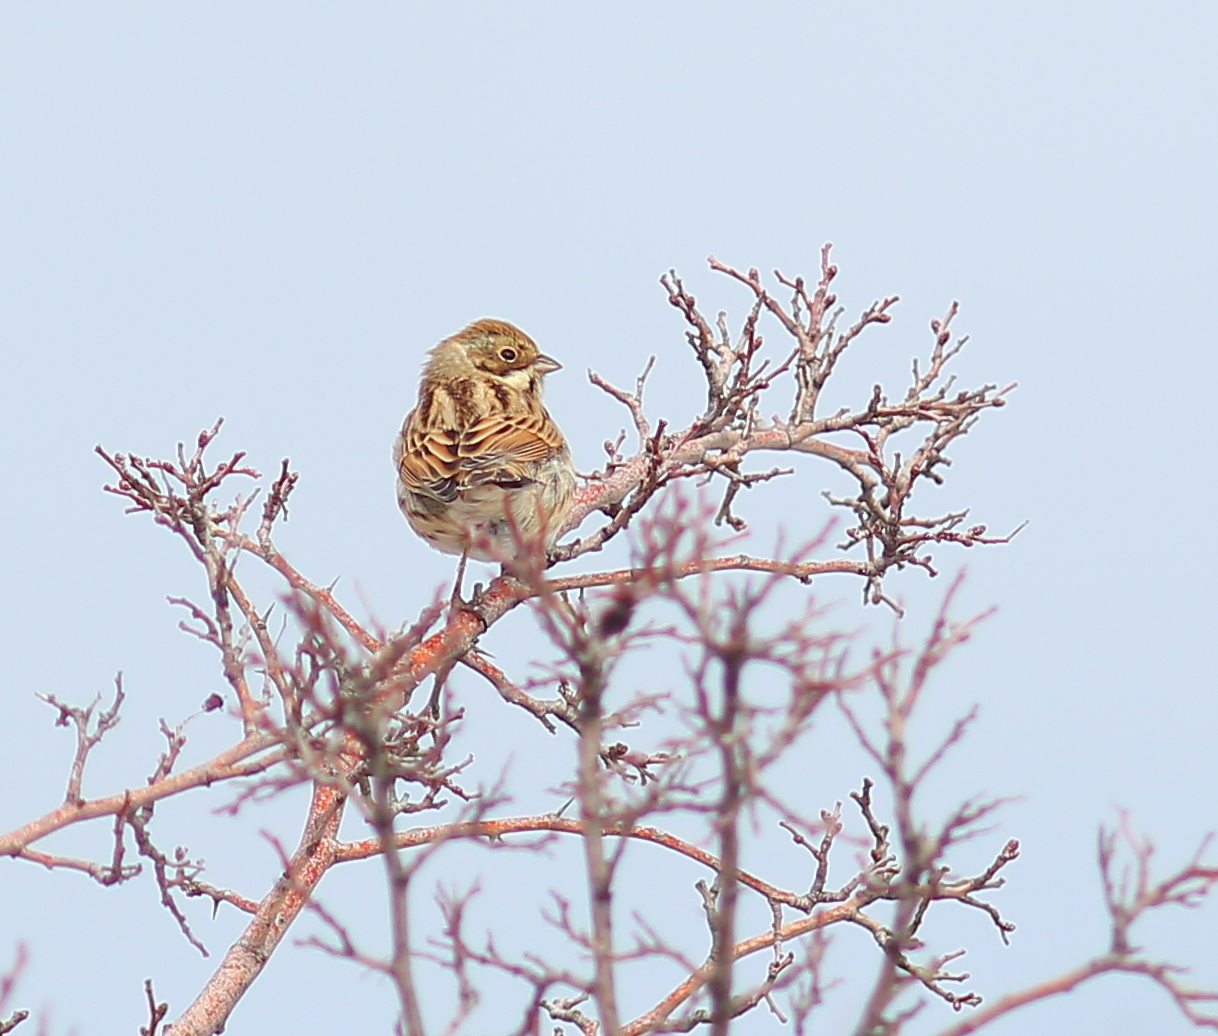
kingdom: Animalia
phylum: Chordata
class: Aves
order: Passeriformes
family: Emberizidae
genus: Emberiza
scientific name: Emberiza schoeniclus
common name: Reed bunting
